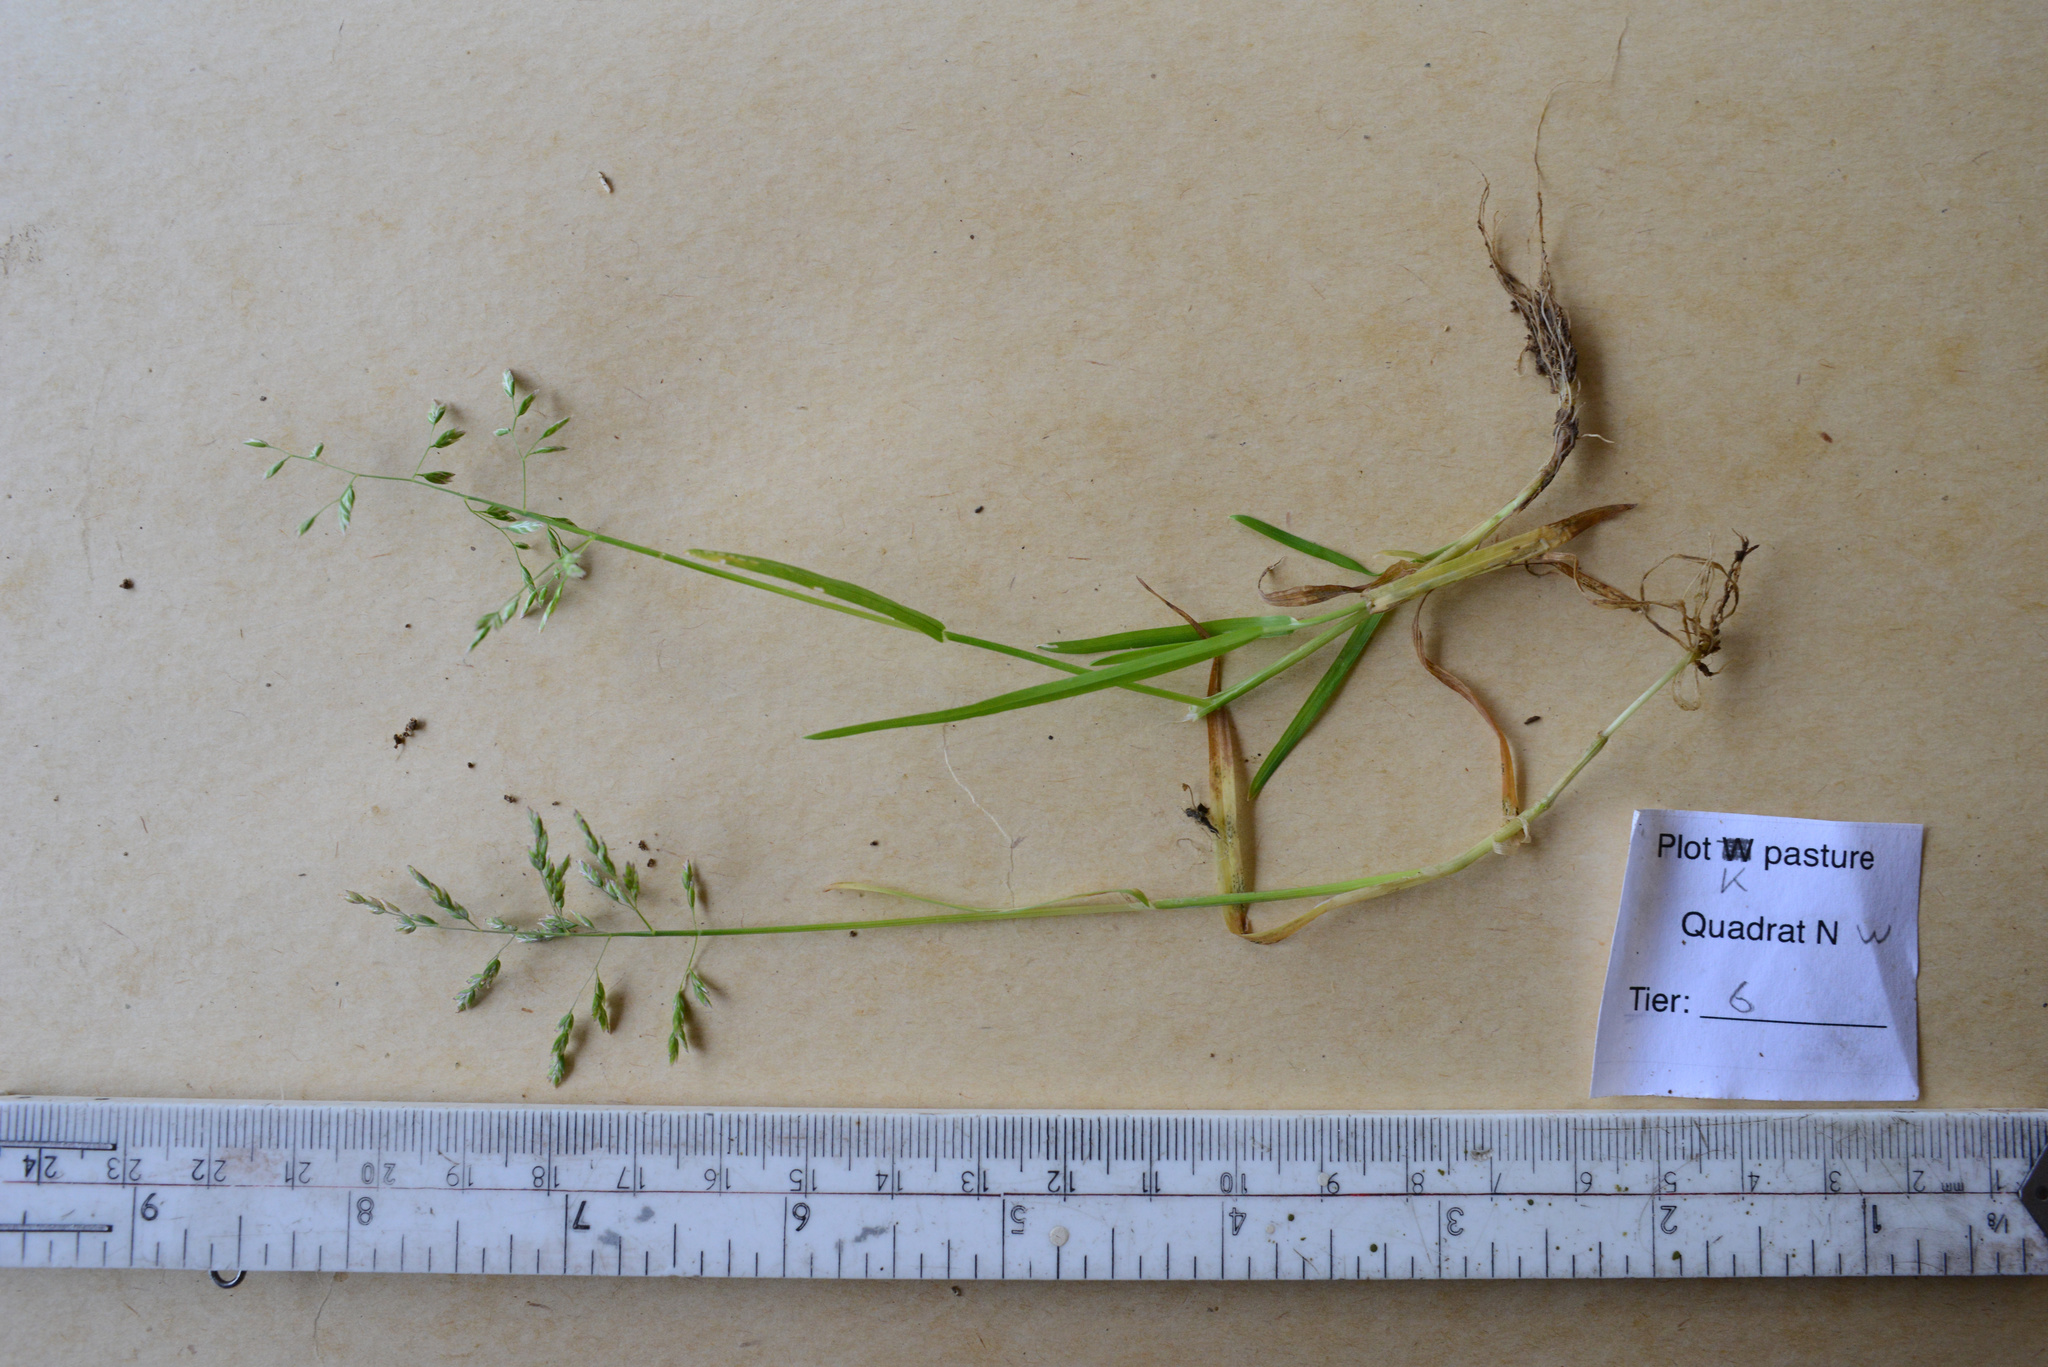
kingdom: Plantae
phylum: Tracheophyta
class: Liliopsida
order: Poales
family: Poaceae
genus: Poa
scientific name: Poa annua
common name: Annual bluegrass
